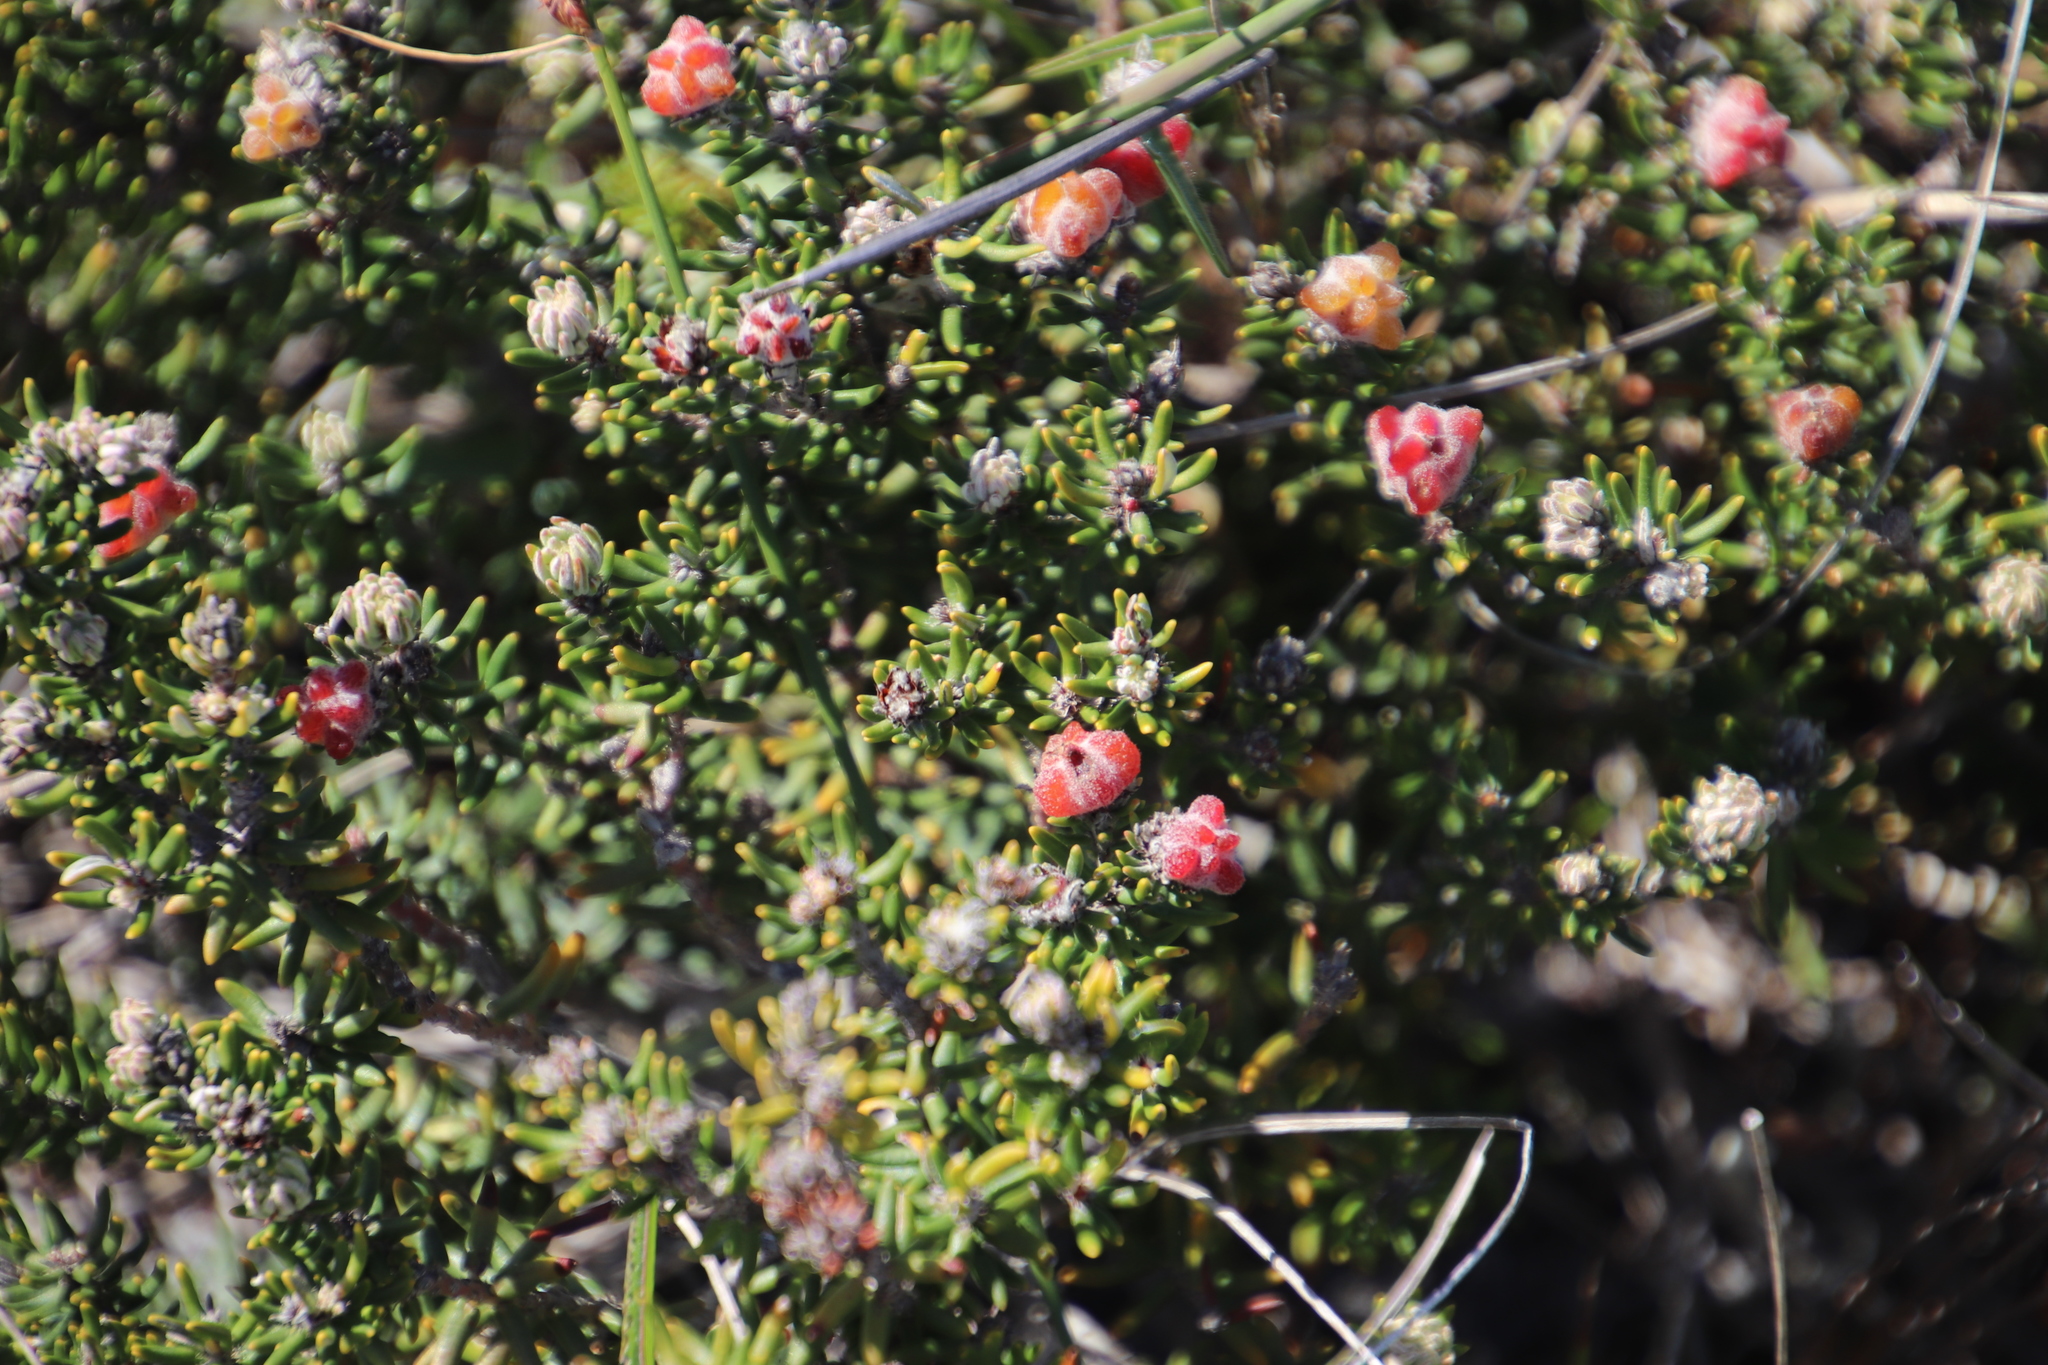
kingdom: Plantae
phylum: Tracheophyta
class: Magnoliopsida
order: Rosales
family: Rhamnaceae
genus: Trichocephalus
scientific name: Trichocephalus stipularis
